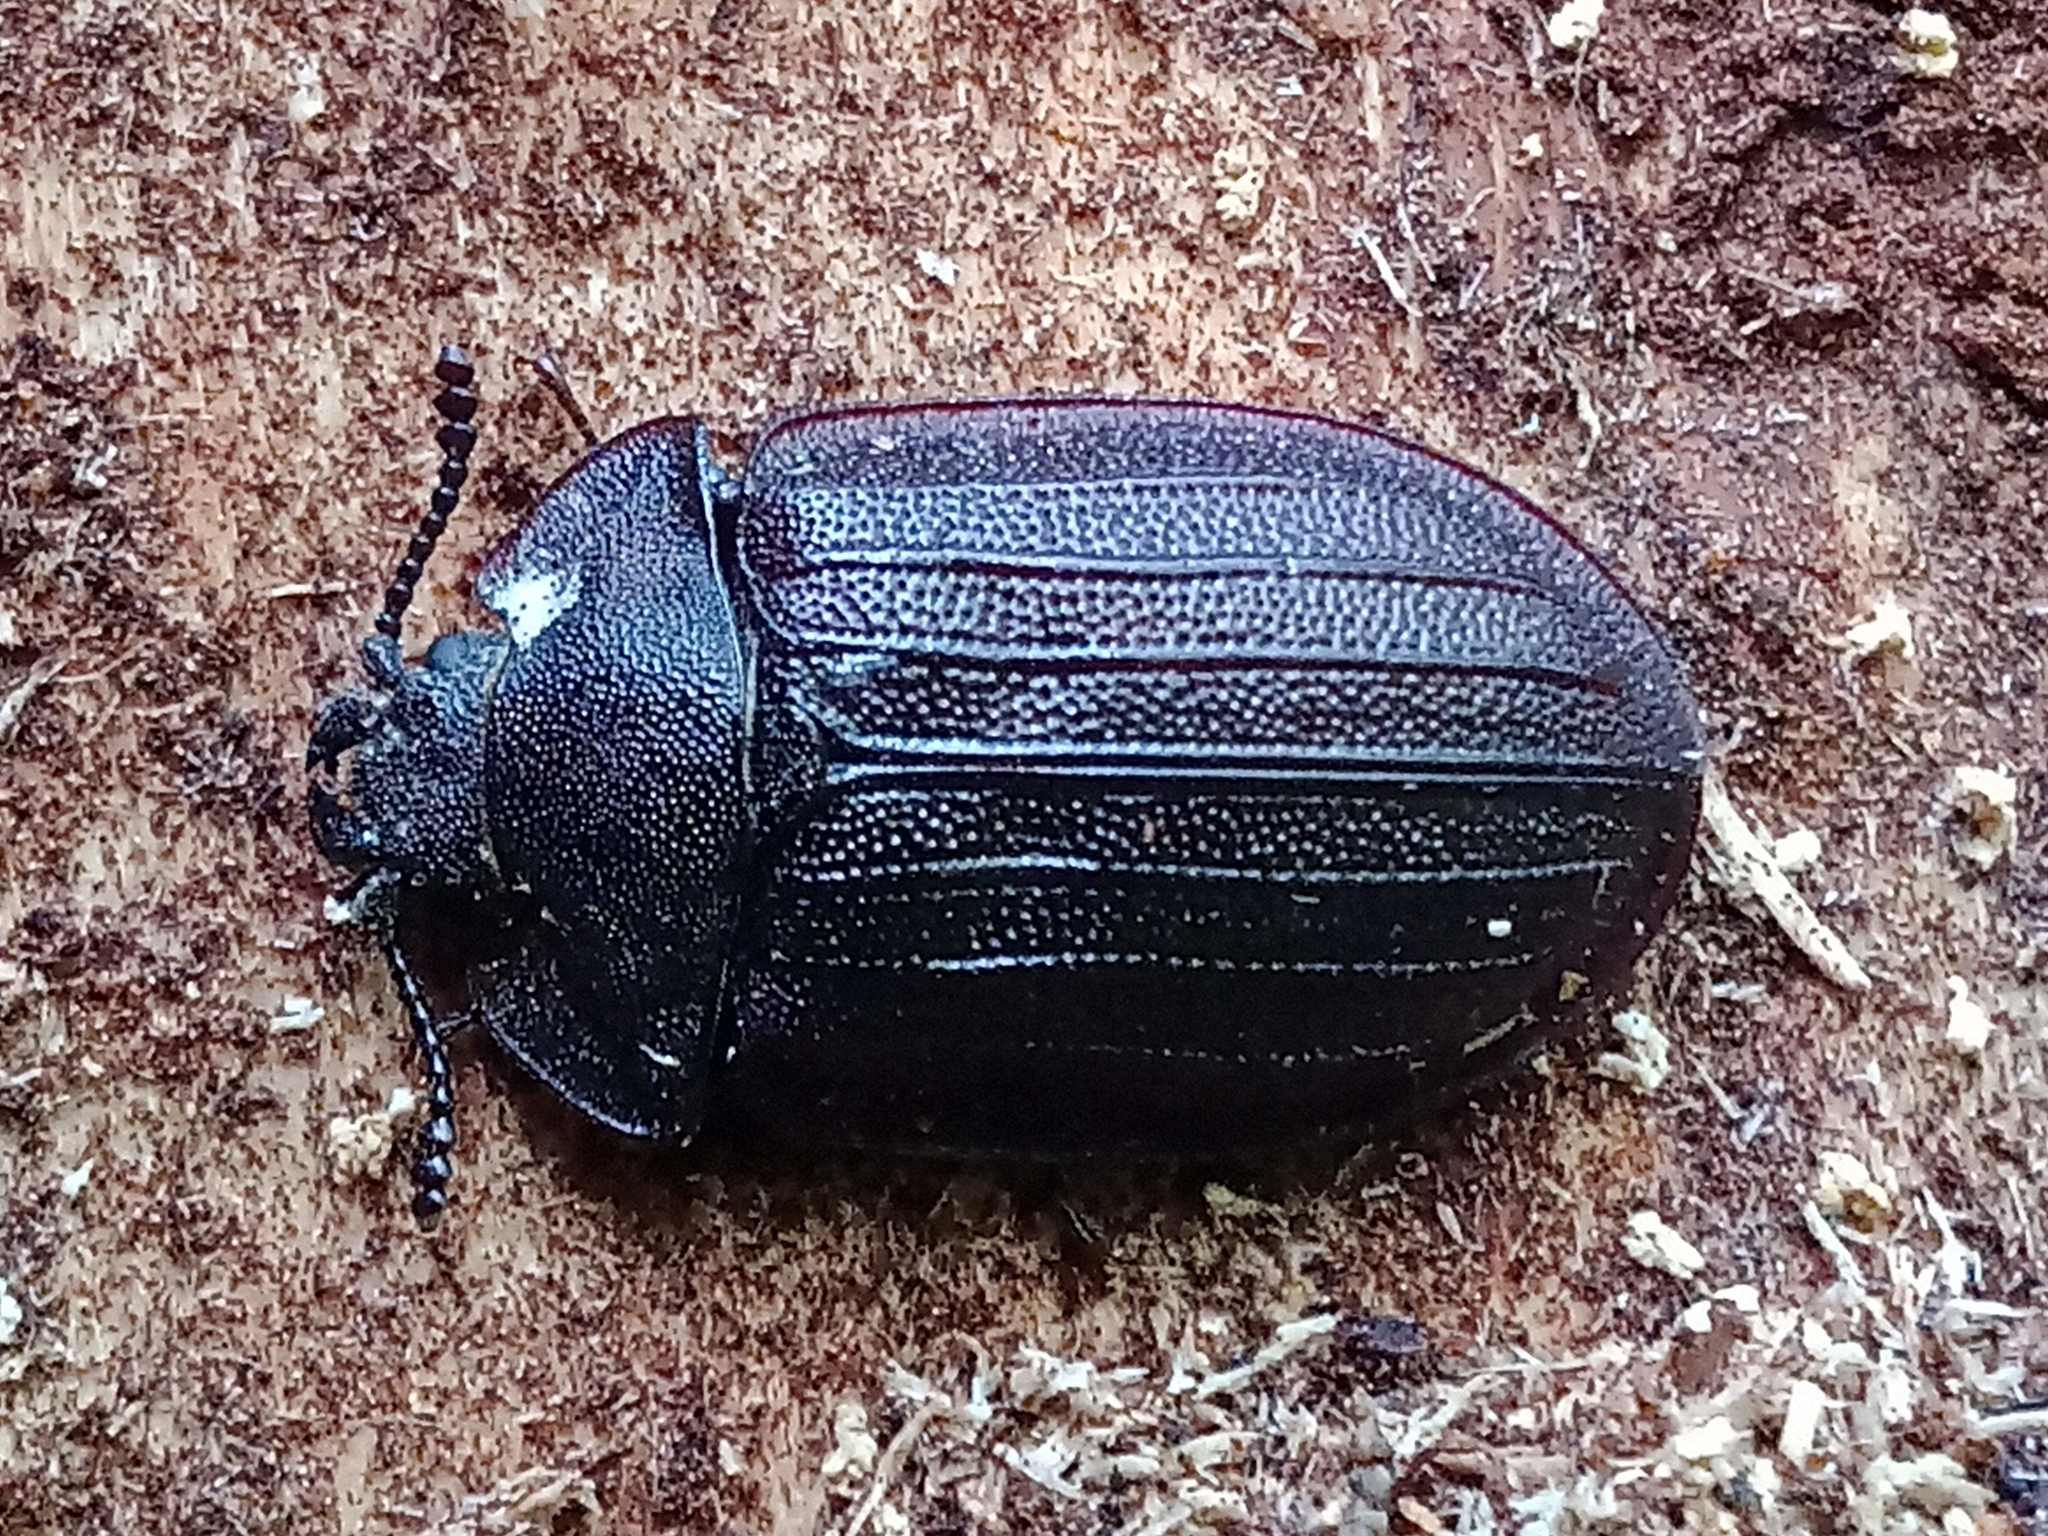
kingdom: Animalia
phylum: Arthropoda
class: Insecta
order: Coleoptera
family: Trogossitidae
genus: Peltis
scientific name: Peltis grossa
